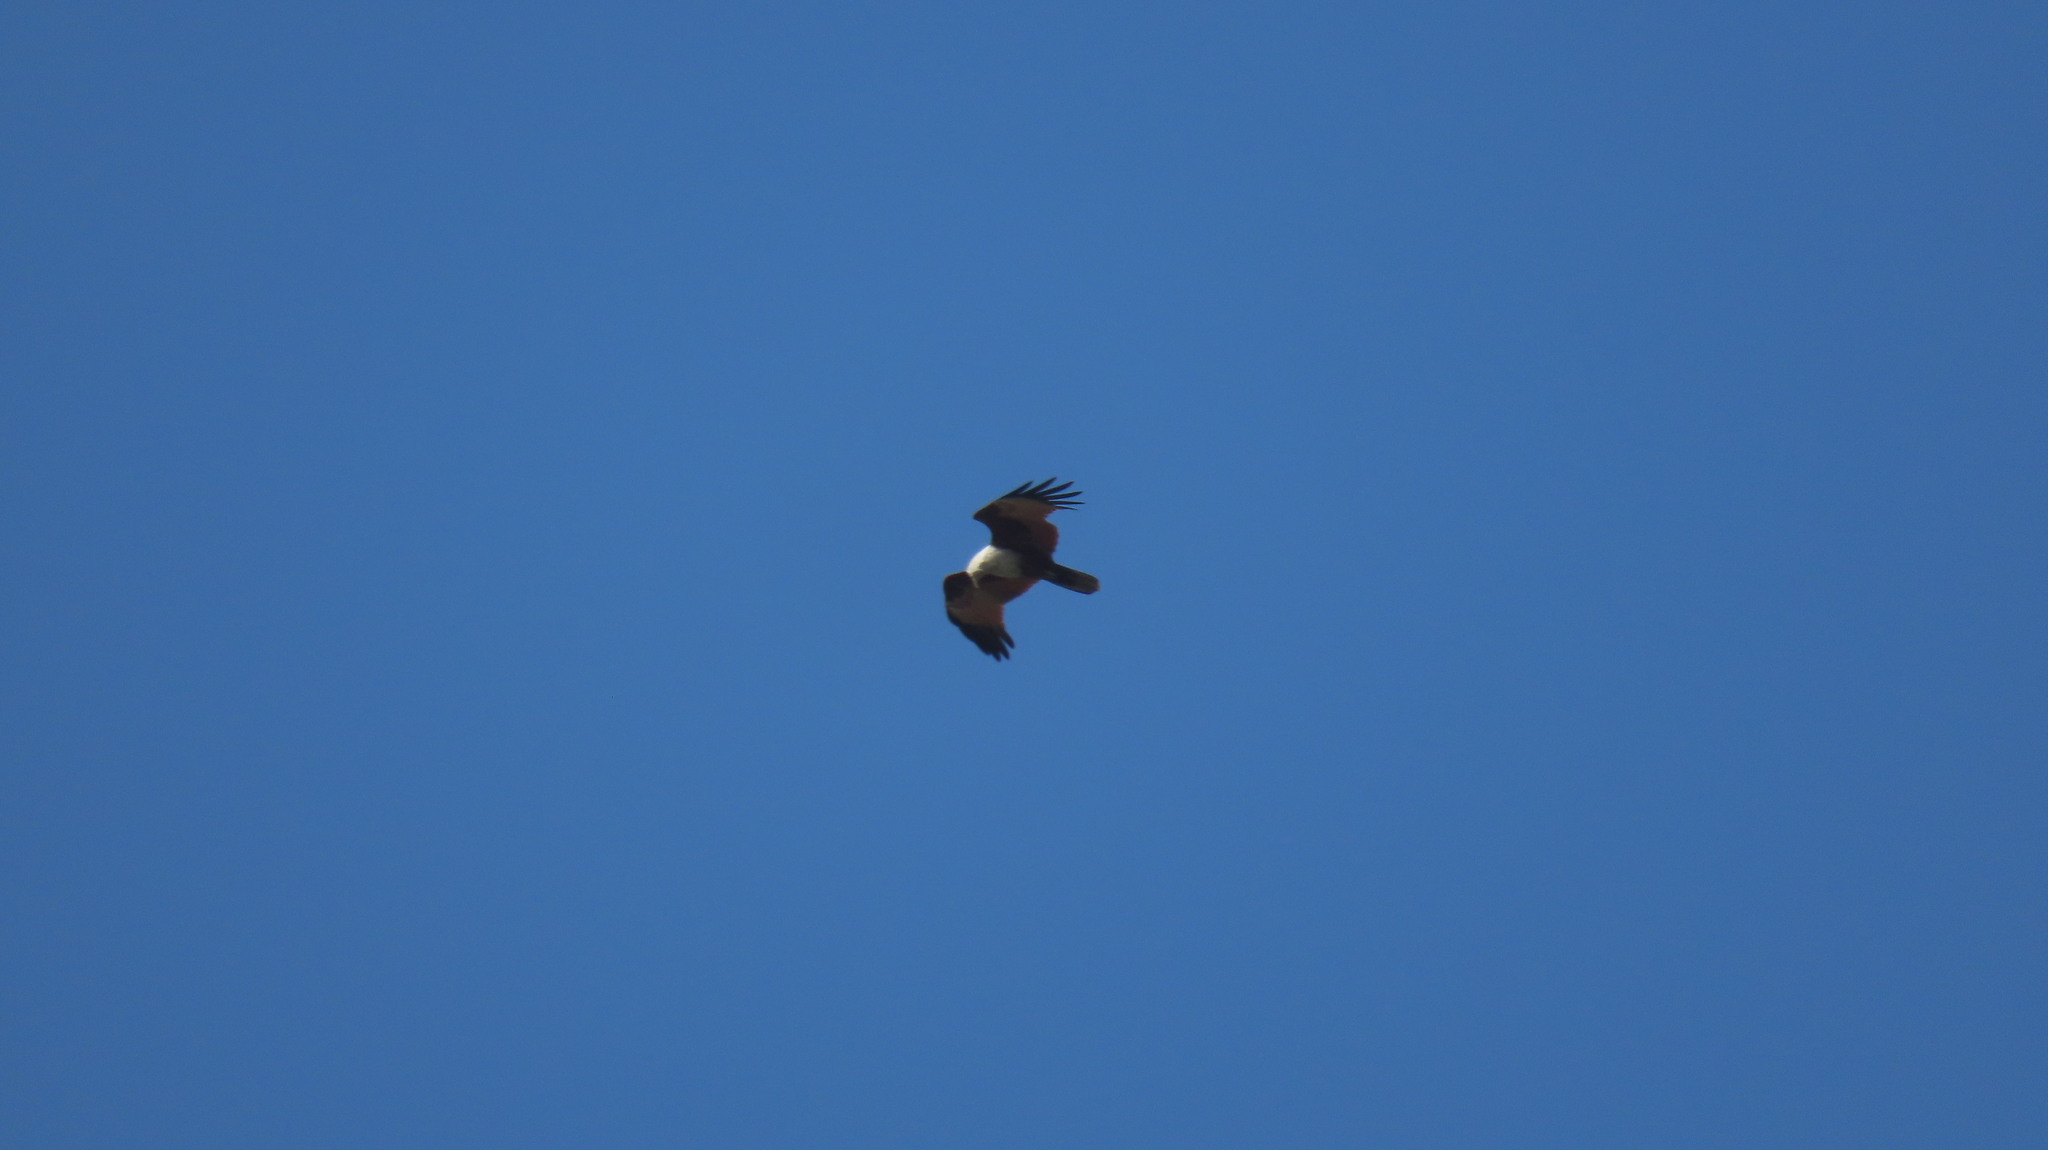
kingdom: Animalia
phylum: Chordata
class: Aves
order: Accipitriformes
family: Accipitridae
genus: Haliastur
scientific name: Haliastur indus
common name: Brahminy kite
